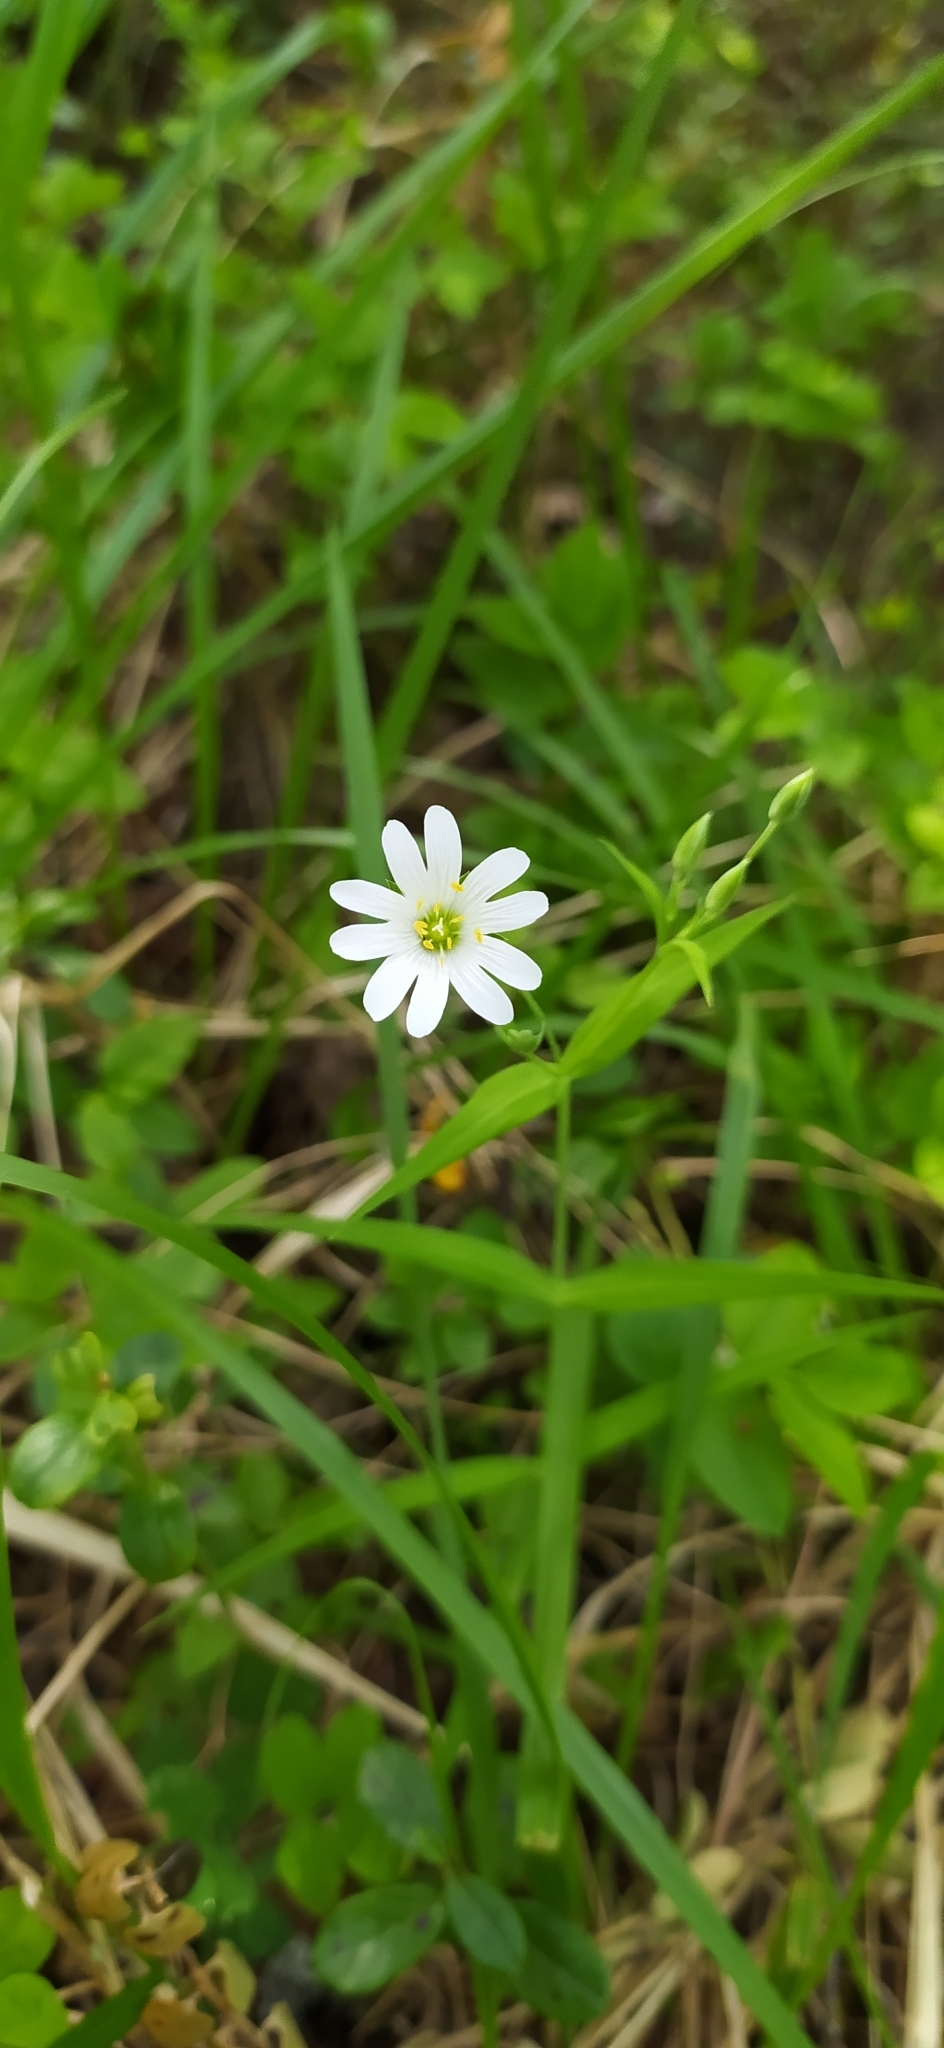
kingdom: Plantae
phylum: Tracheophyta
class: Magnoliopsida
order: Caryophyllales
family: Caryophyllaceae
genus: Rabelera
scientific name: Rabelera holostea
